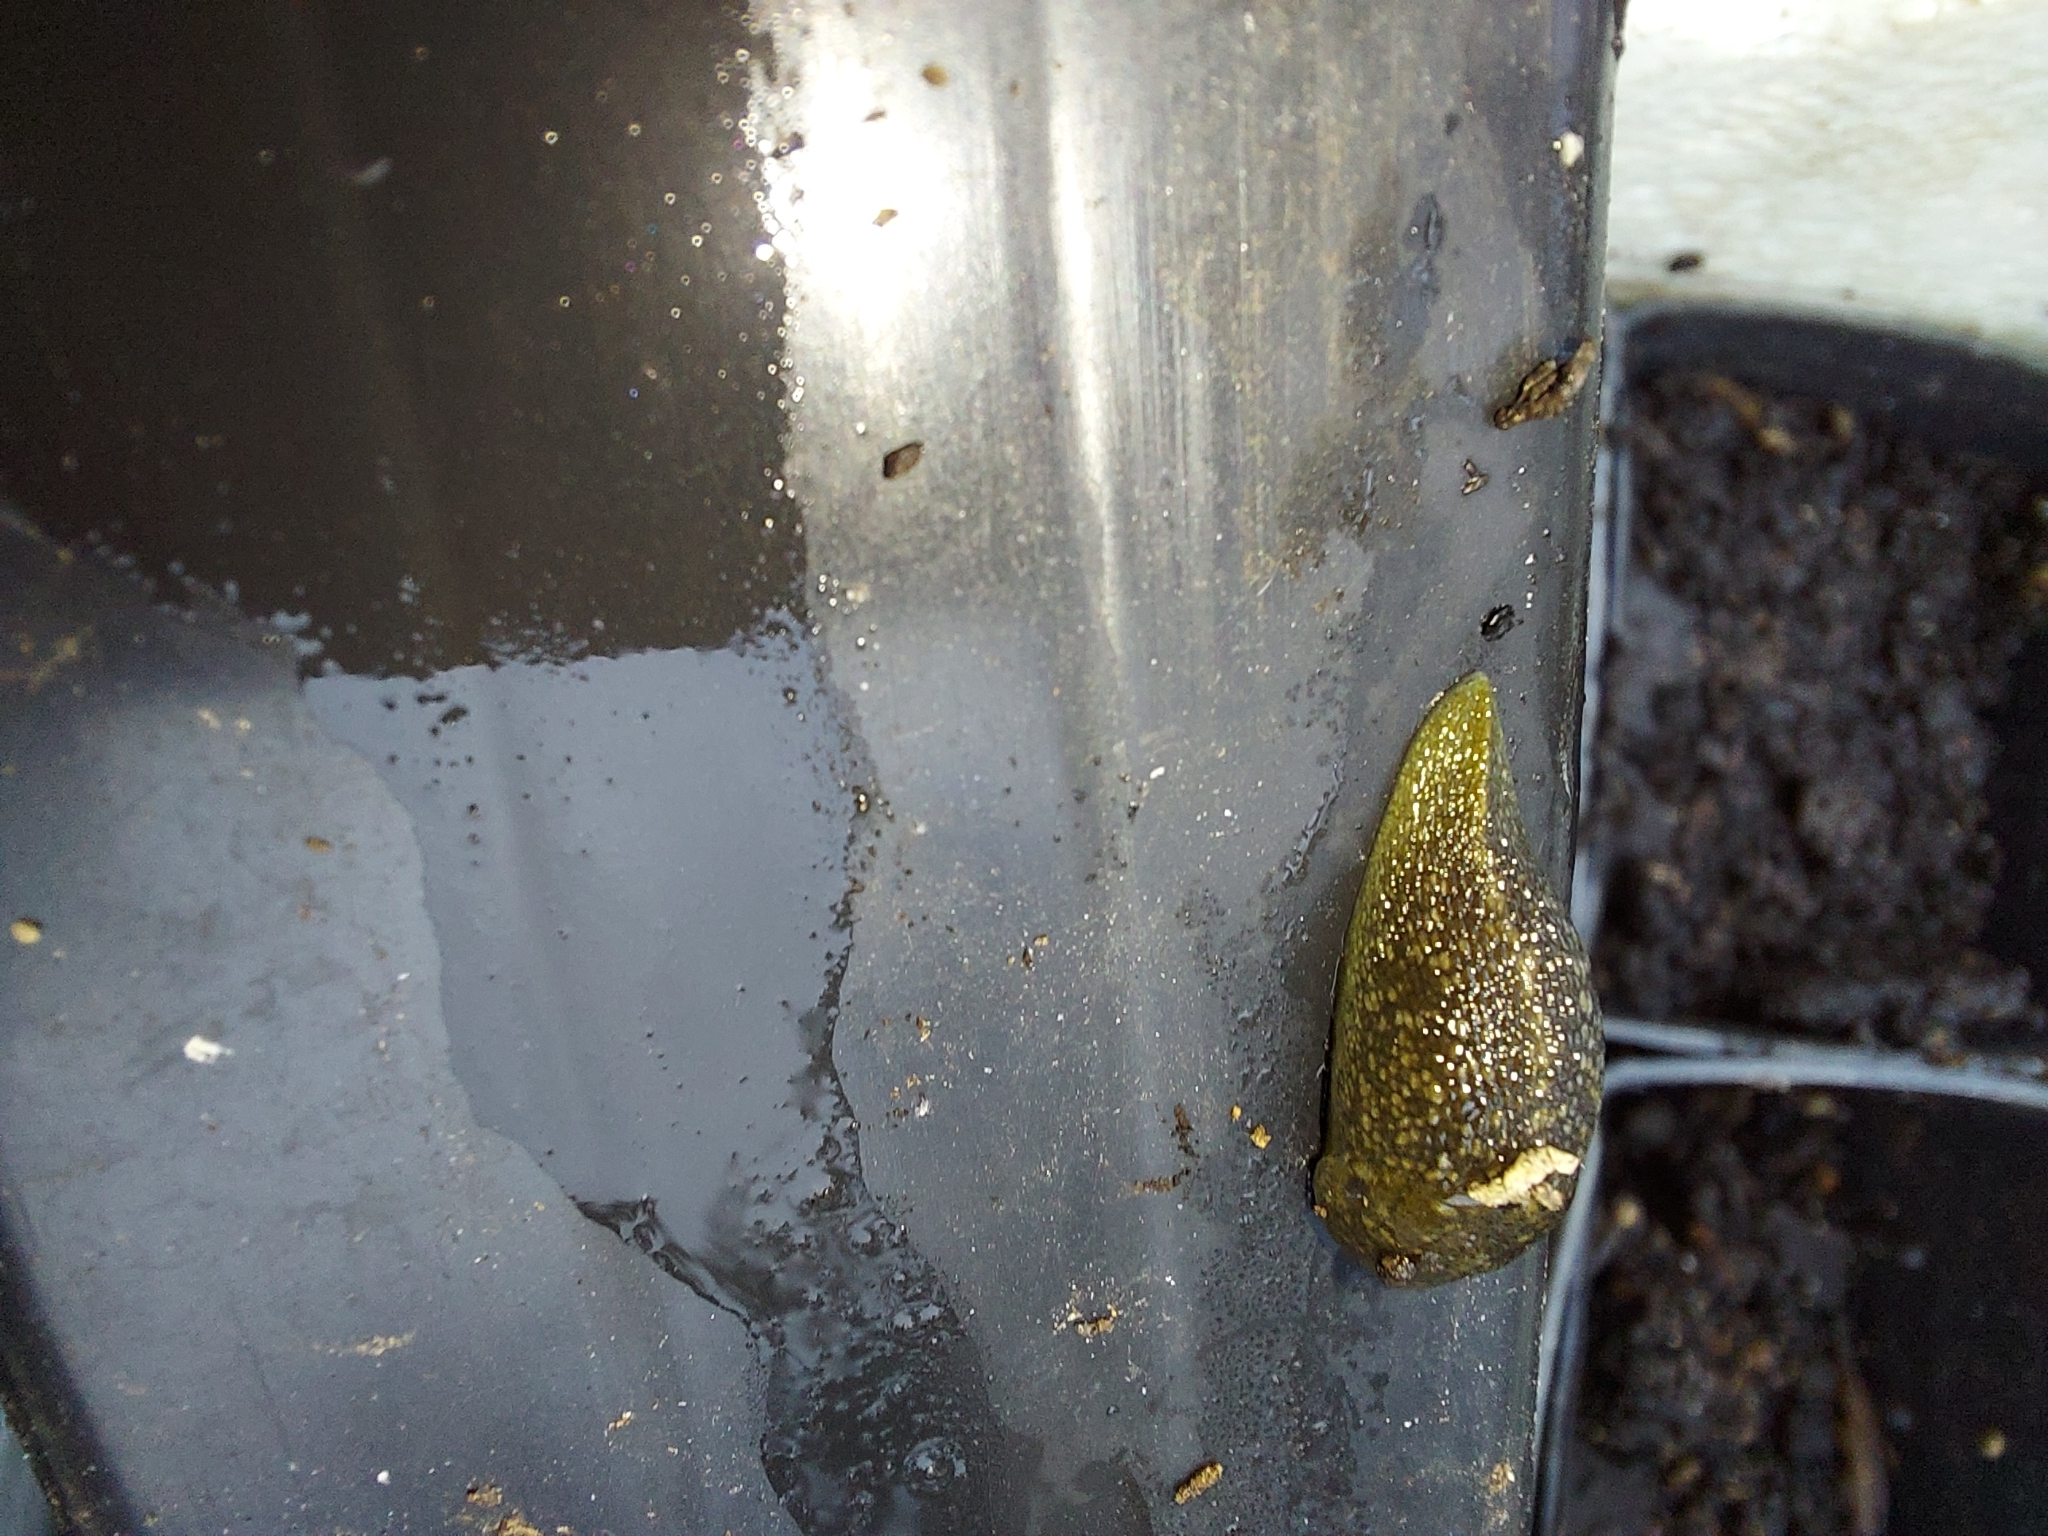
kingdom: Animalia
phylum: Mollusca
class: Gastropoda
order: Stylommatophora
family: Limacidae
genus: Limacus
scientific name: Limacus flavus
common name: Yellow gardenslug
